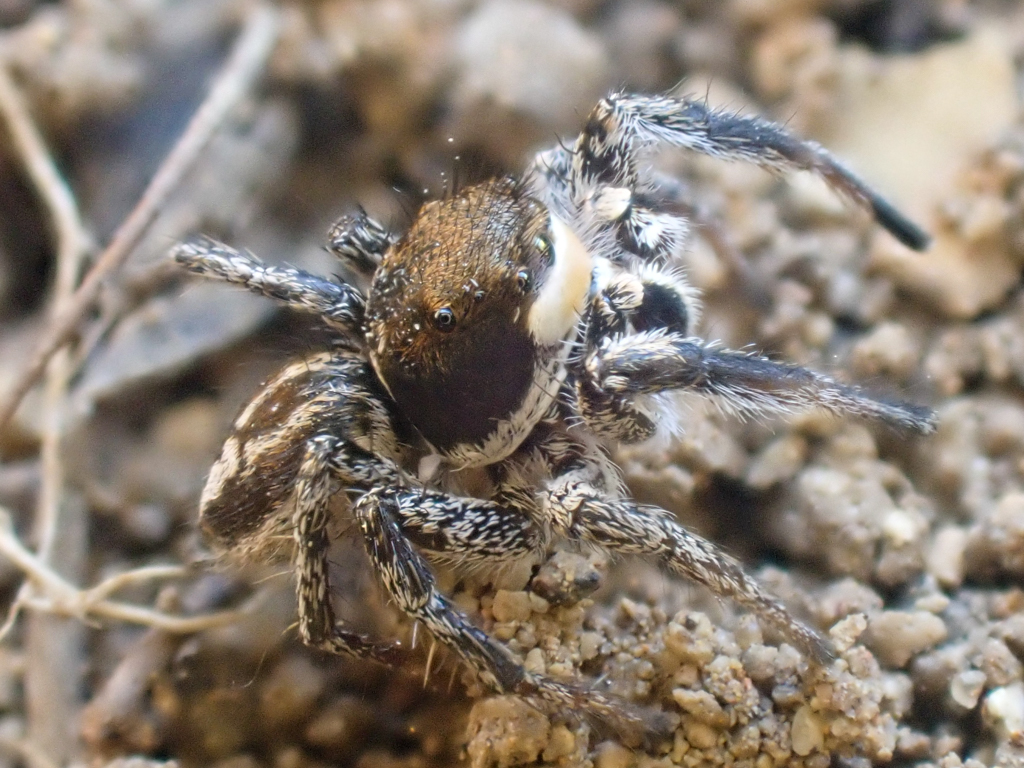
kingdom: Animalia
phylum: Arthropoda
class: Arachnida
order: Araneae
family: Salticidae
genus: Habronattus
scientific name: Habronattus tarsalis
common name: Jumping spider
